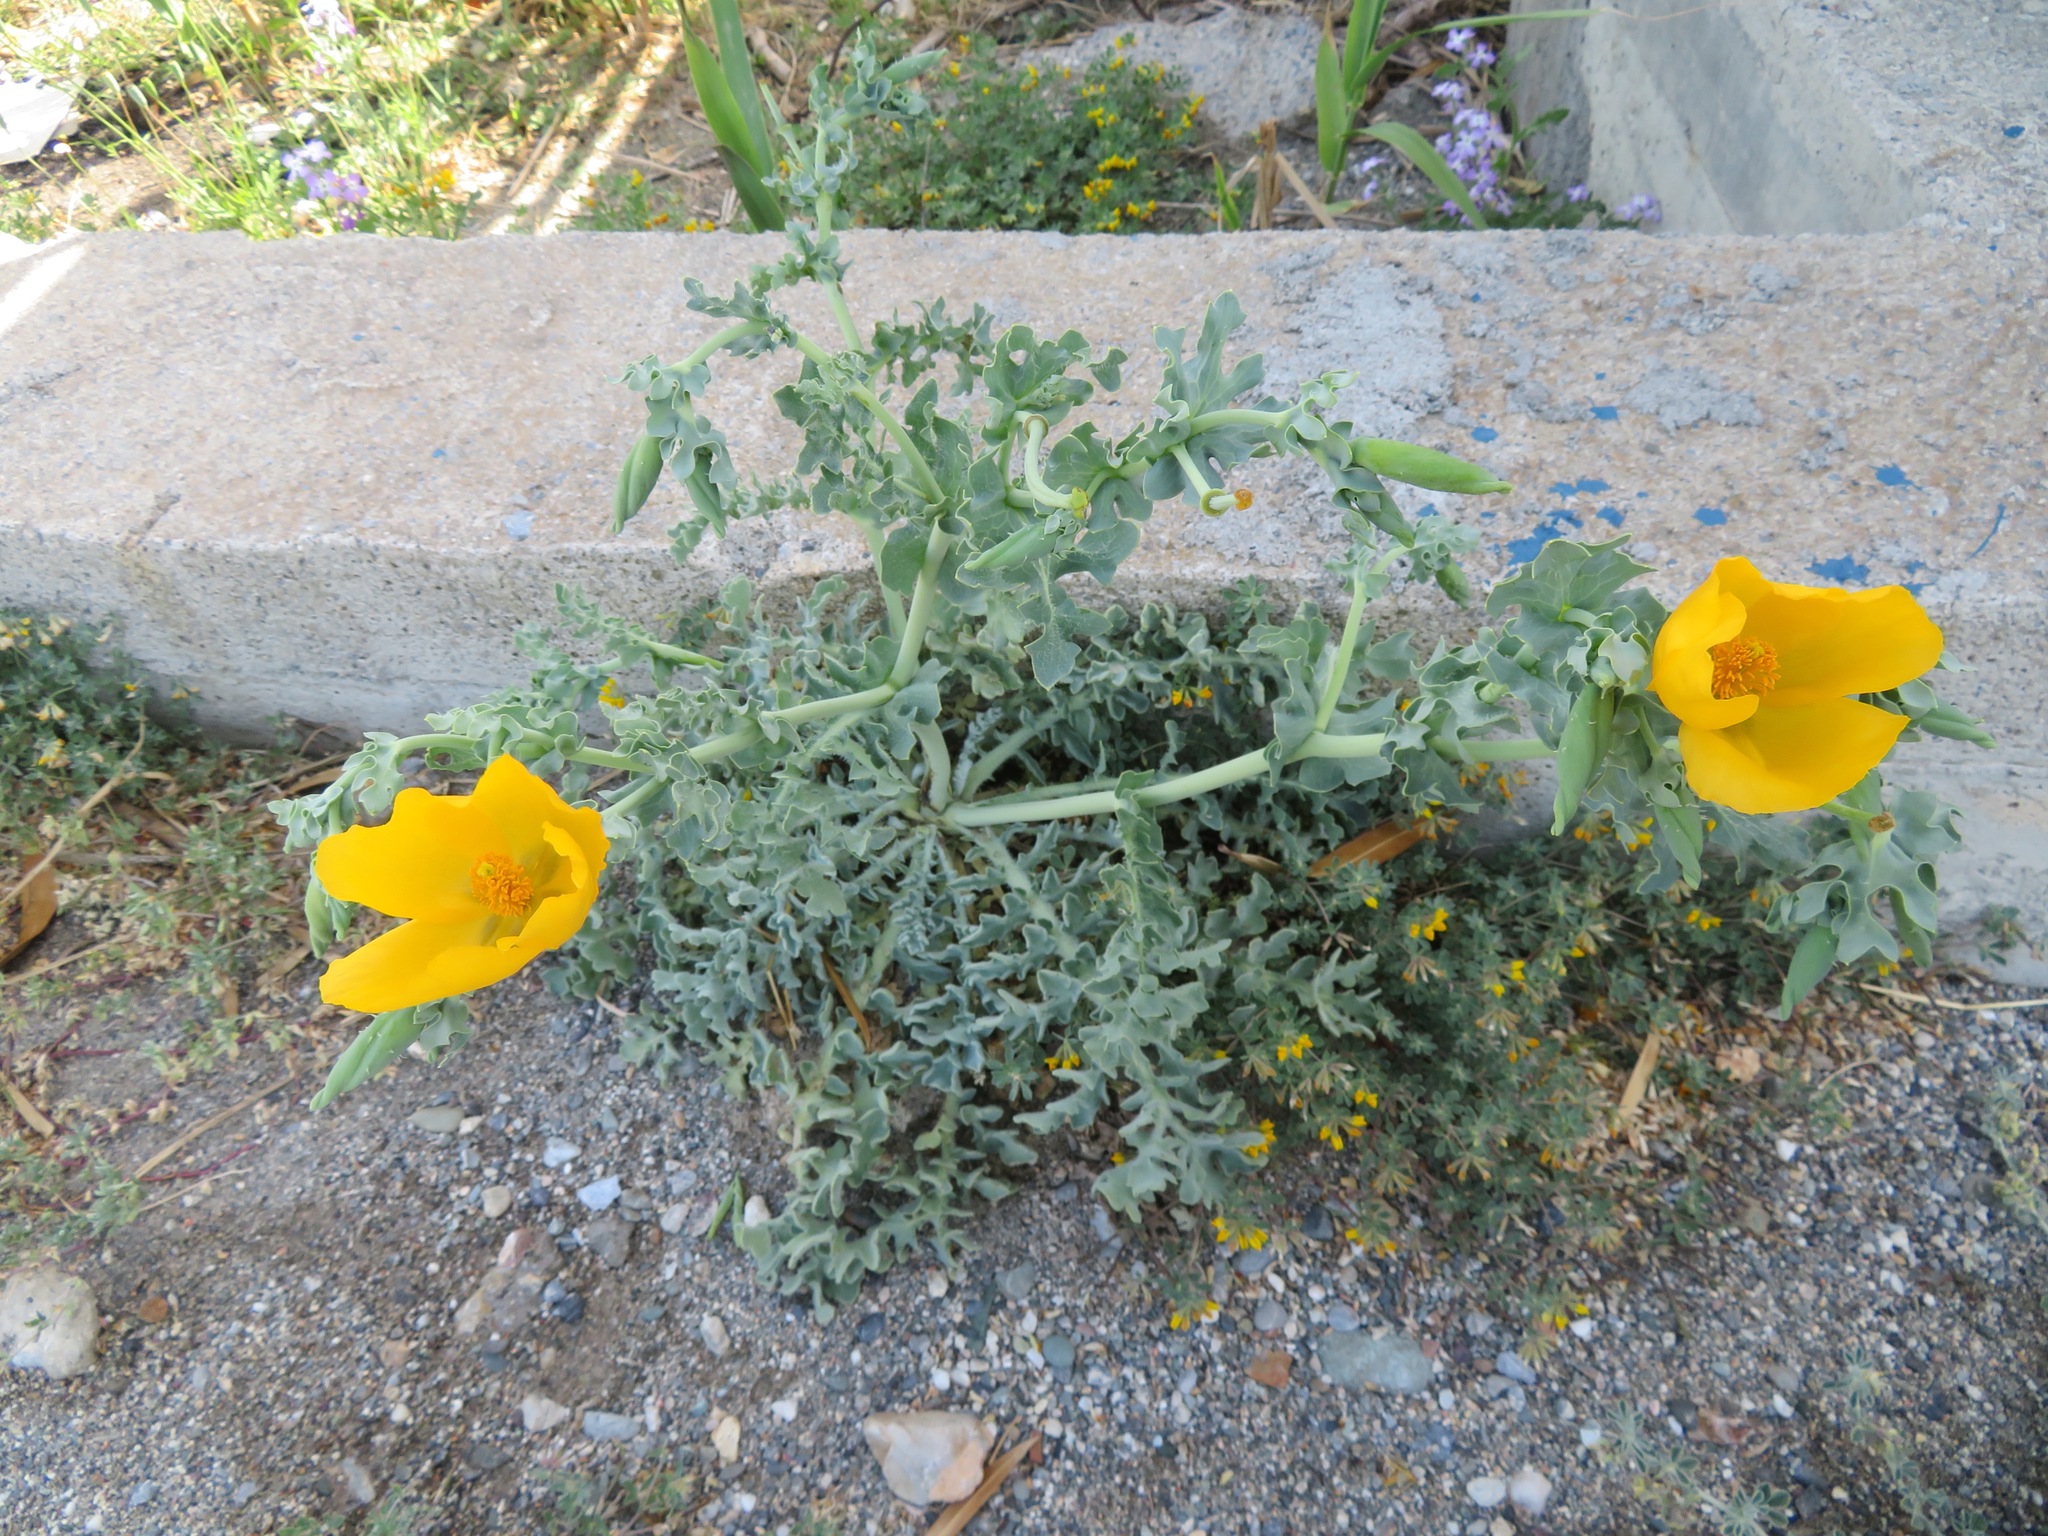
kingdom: Plantae
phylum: Tracheophyta
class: Magnoliopsida
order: Ranunculales
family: Papaveraceae
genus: Glaucium
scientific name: Glaucium flavum
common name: Yellow horned-poppy
